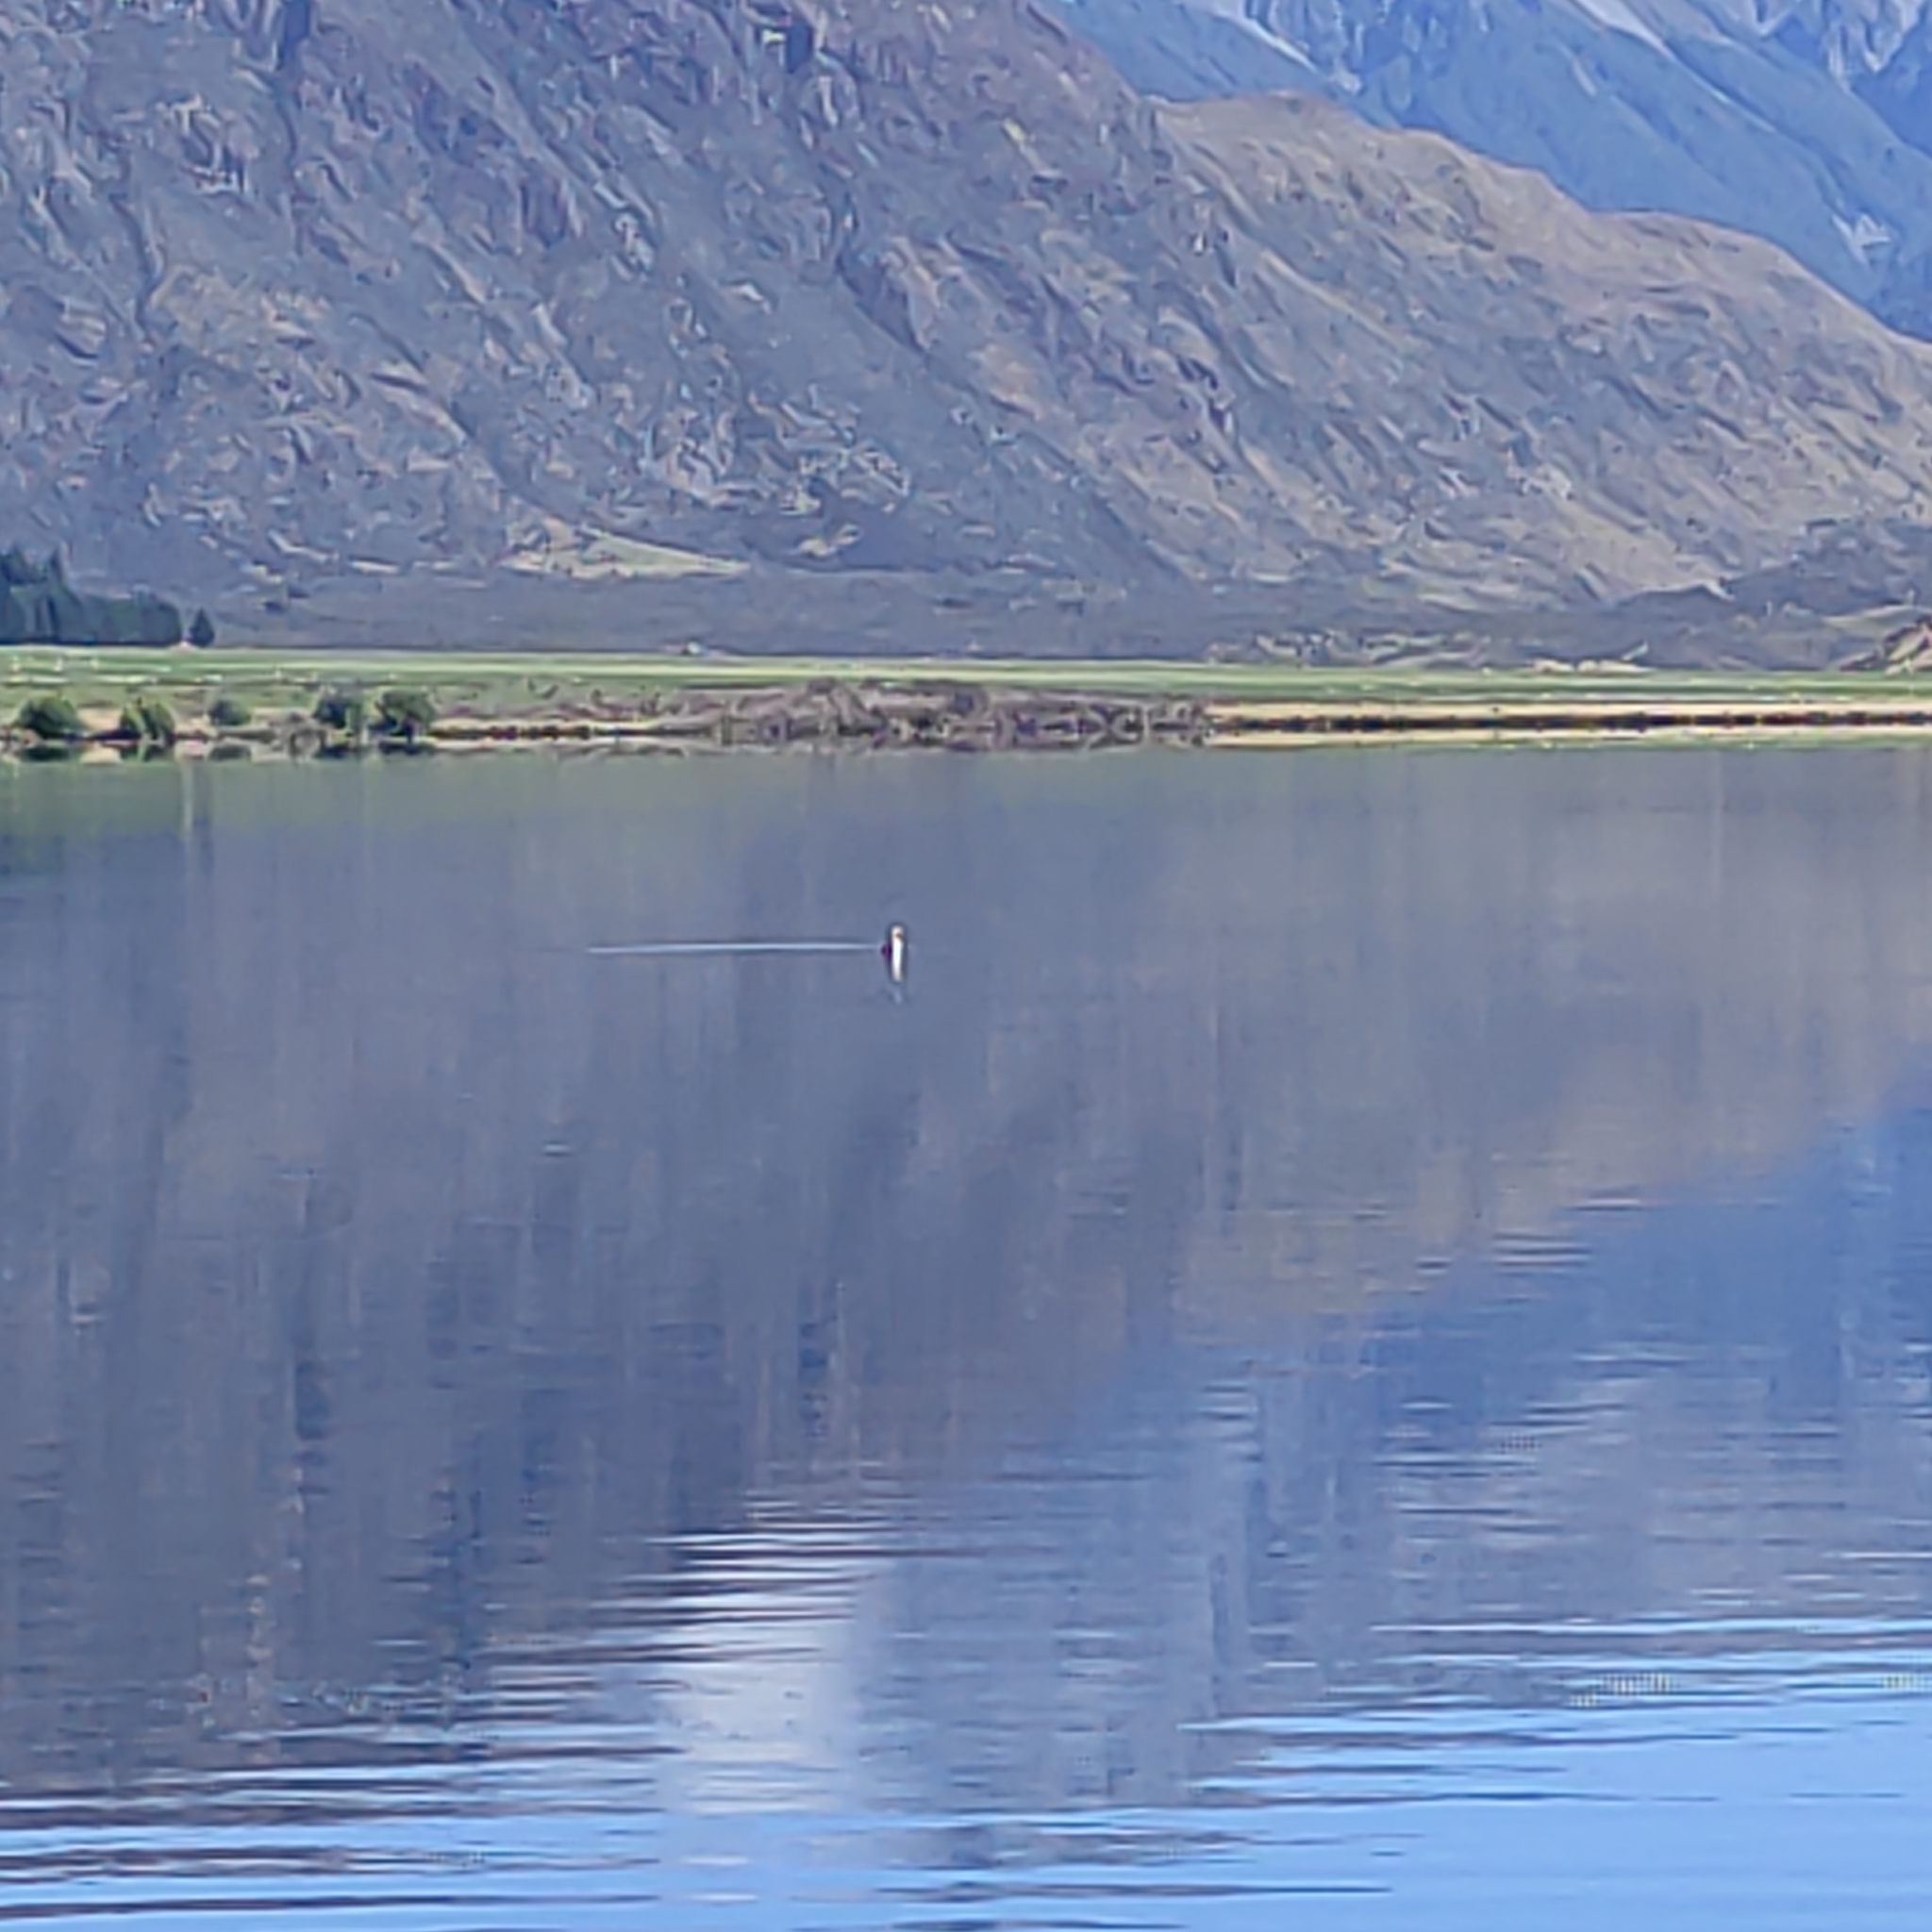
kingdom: Animalia
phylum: Chordata
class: Aves
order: Podicipediformes
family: Podicipedidae
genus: Podiceps
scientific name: Podiceps cristatus
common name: Great crested grebe
